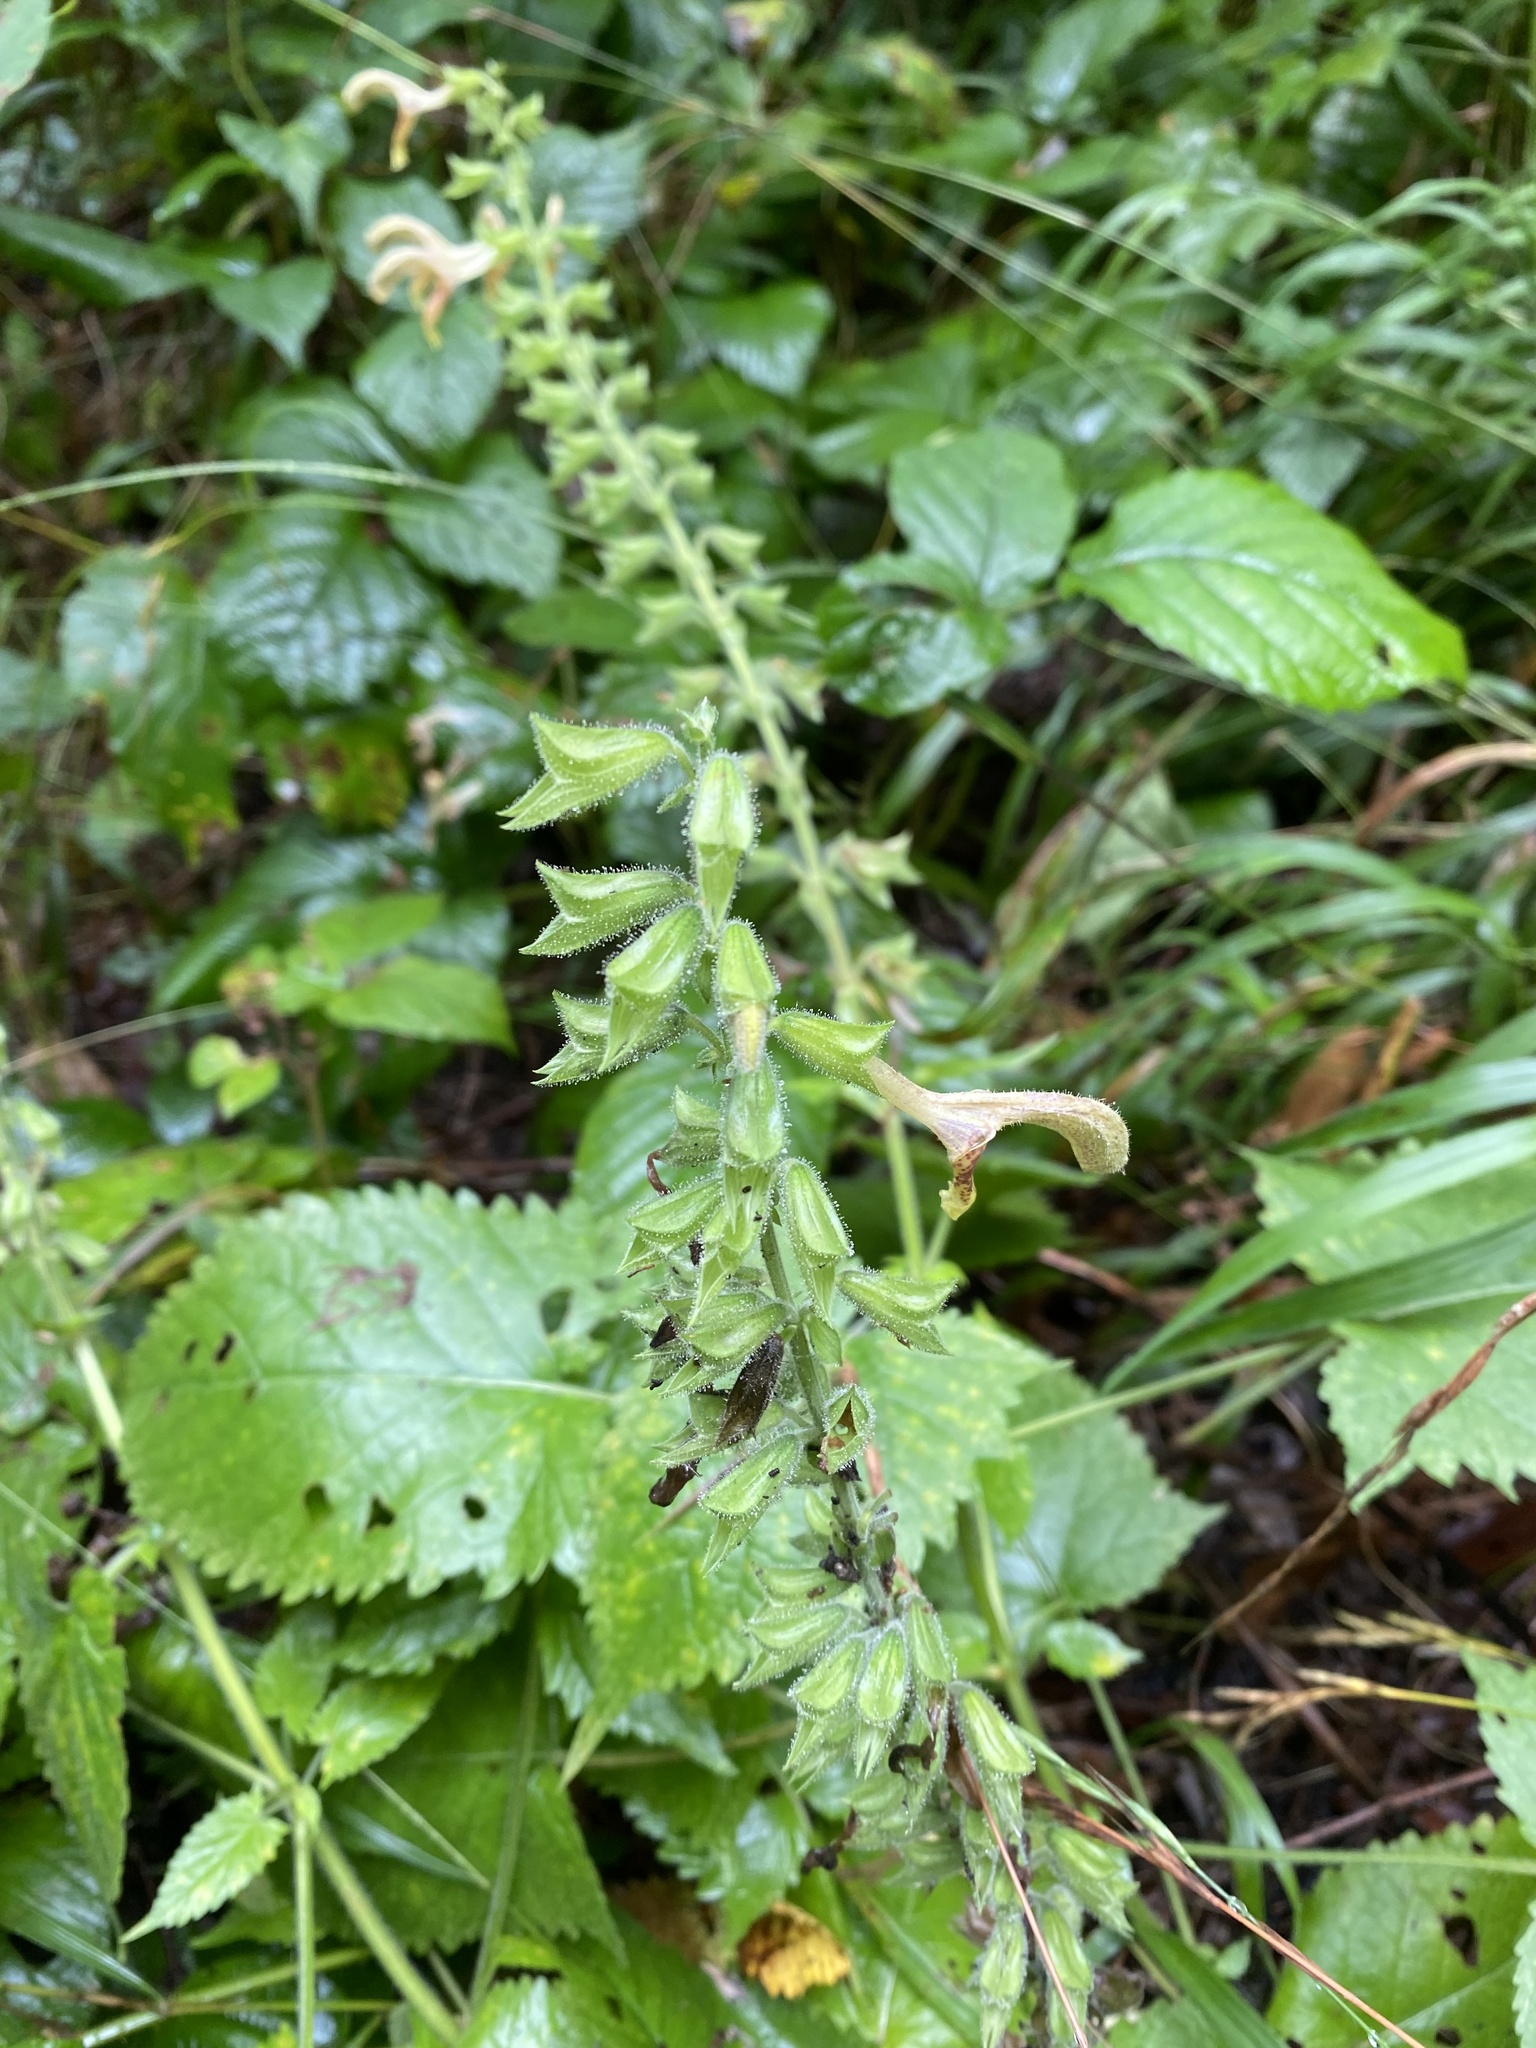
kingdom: Plantae
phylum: Tracheophyta
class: Magnoliopsida
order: Lamiales
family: Lamiaceae
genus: Salvia
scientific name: Salvia glutinosa
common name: Sticky clary
